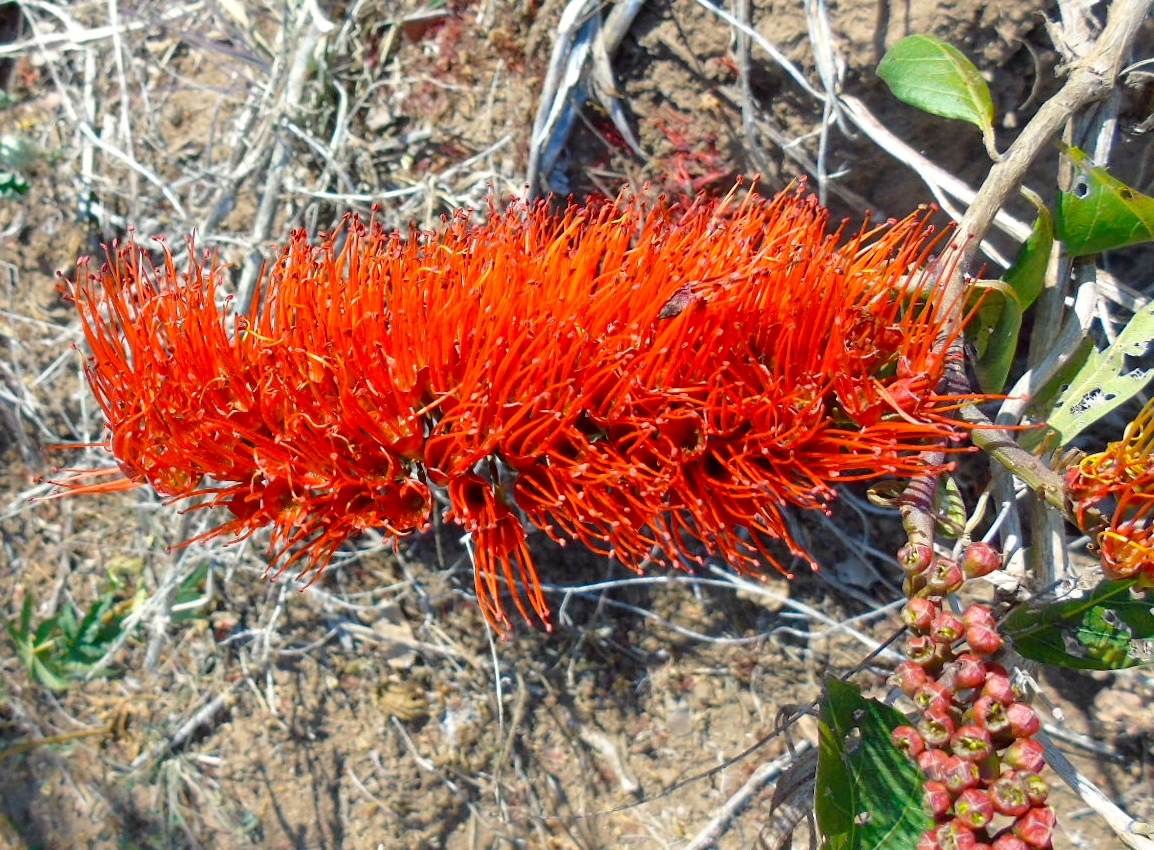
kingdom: Plantae
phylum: Tracheophyta
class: Magnoliopsida
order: Myrtales
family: Combretaceae
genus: Combretum
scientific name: Combretum farinosum
